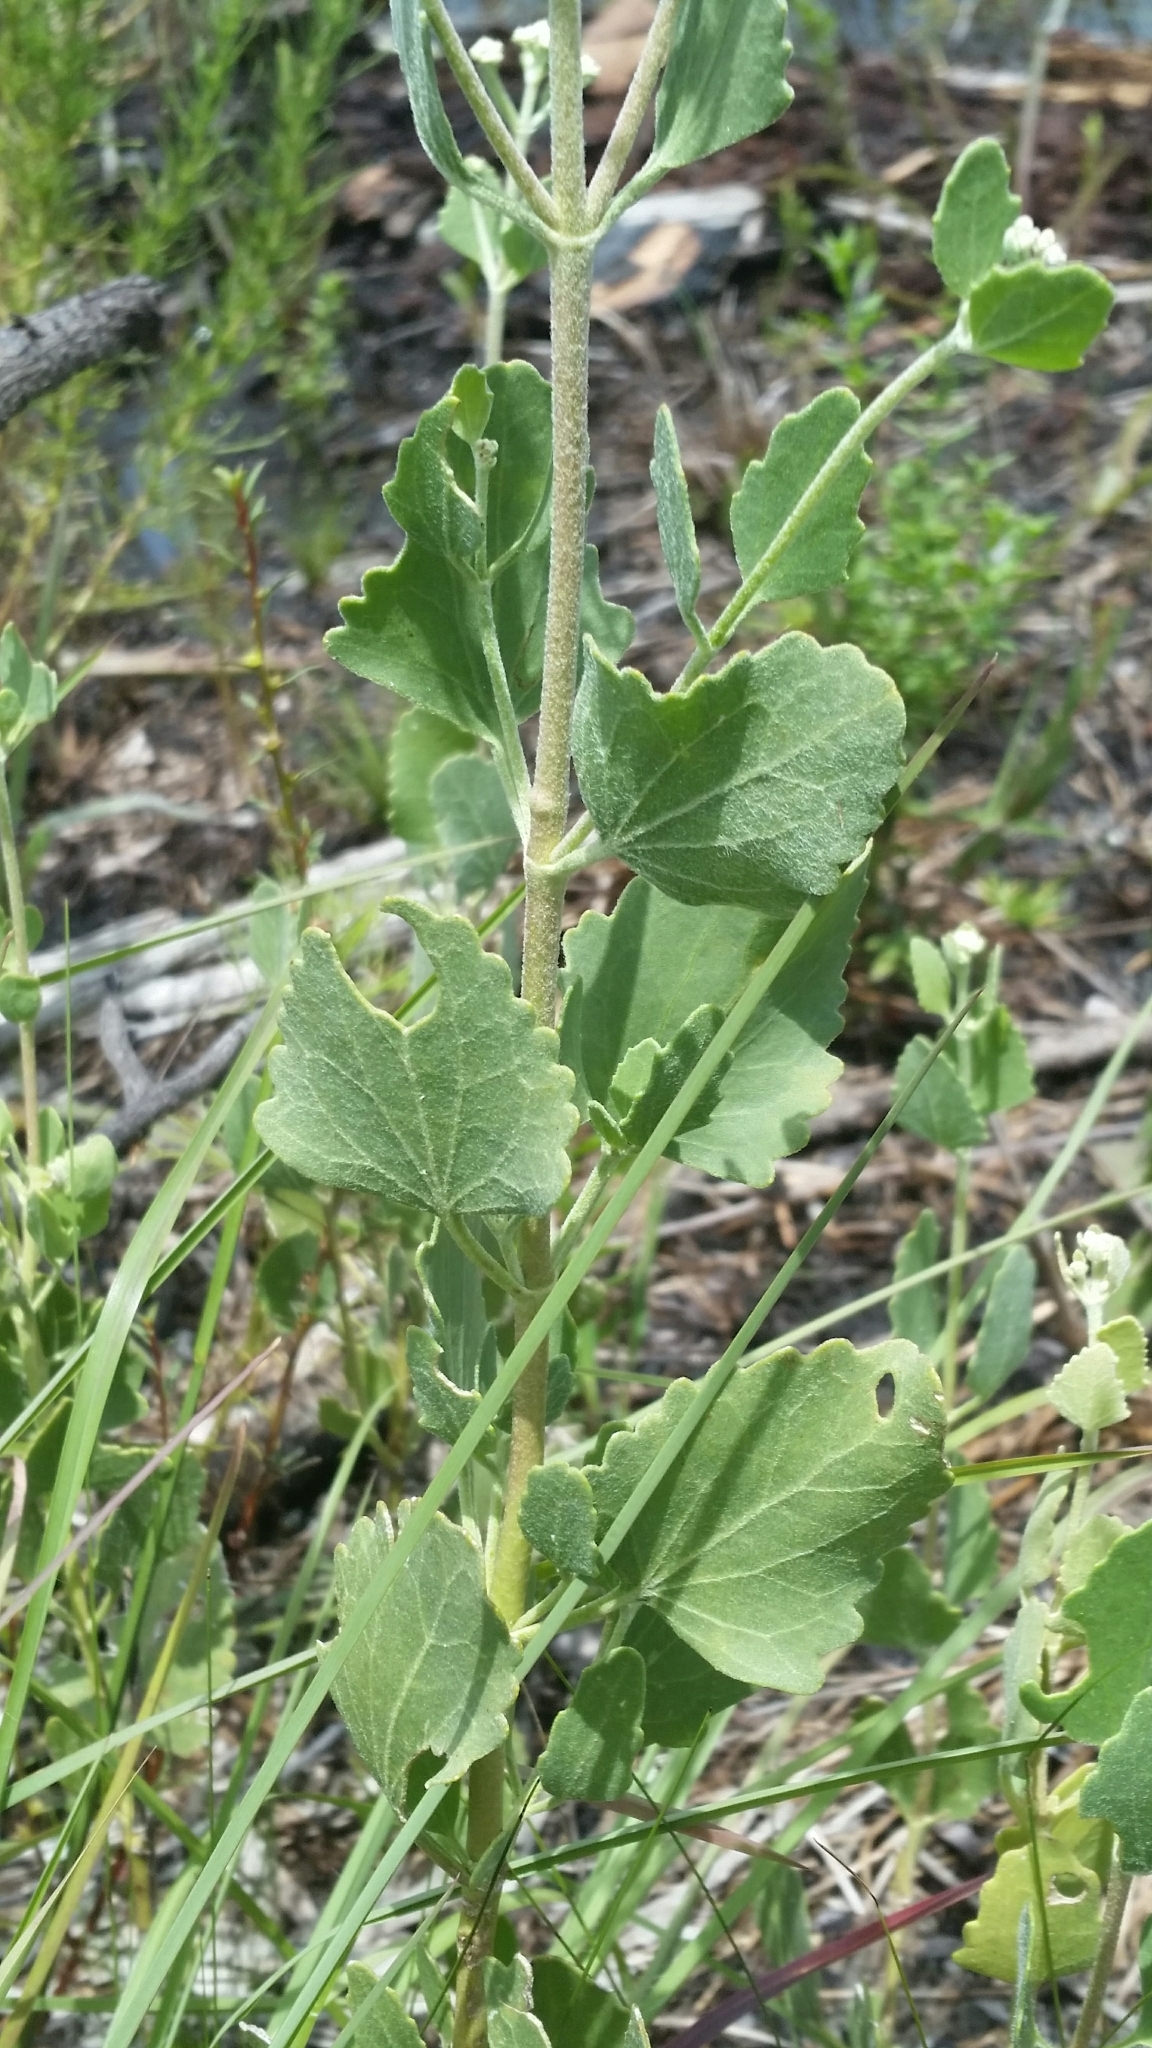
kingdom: Plantae
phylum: Tracheophyta
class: Magnoliopsida
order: Asterales
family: Asteraceae
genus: Eupatorium
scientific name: Eupatorium mikanioides
